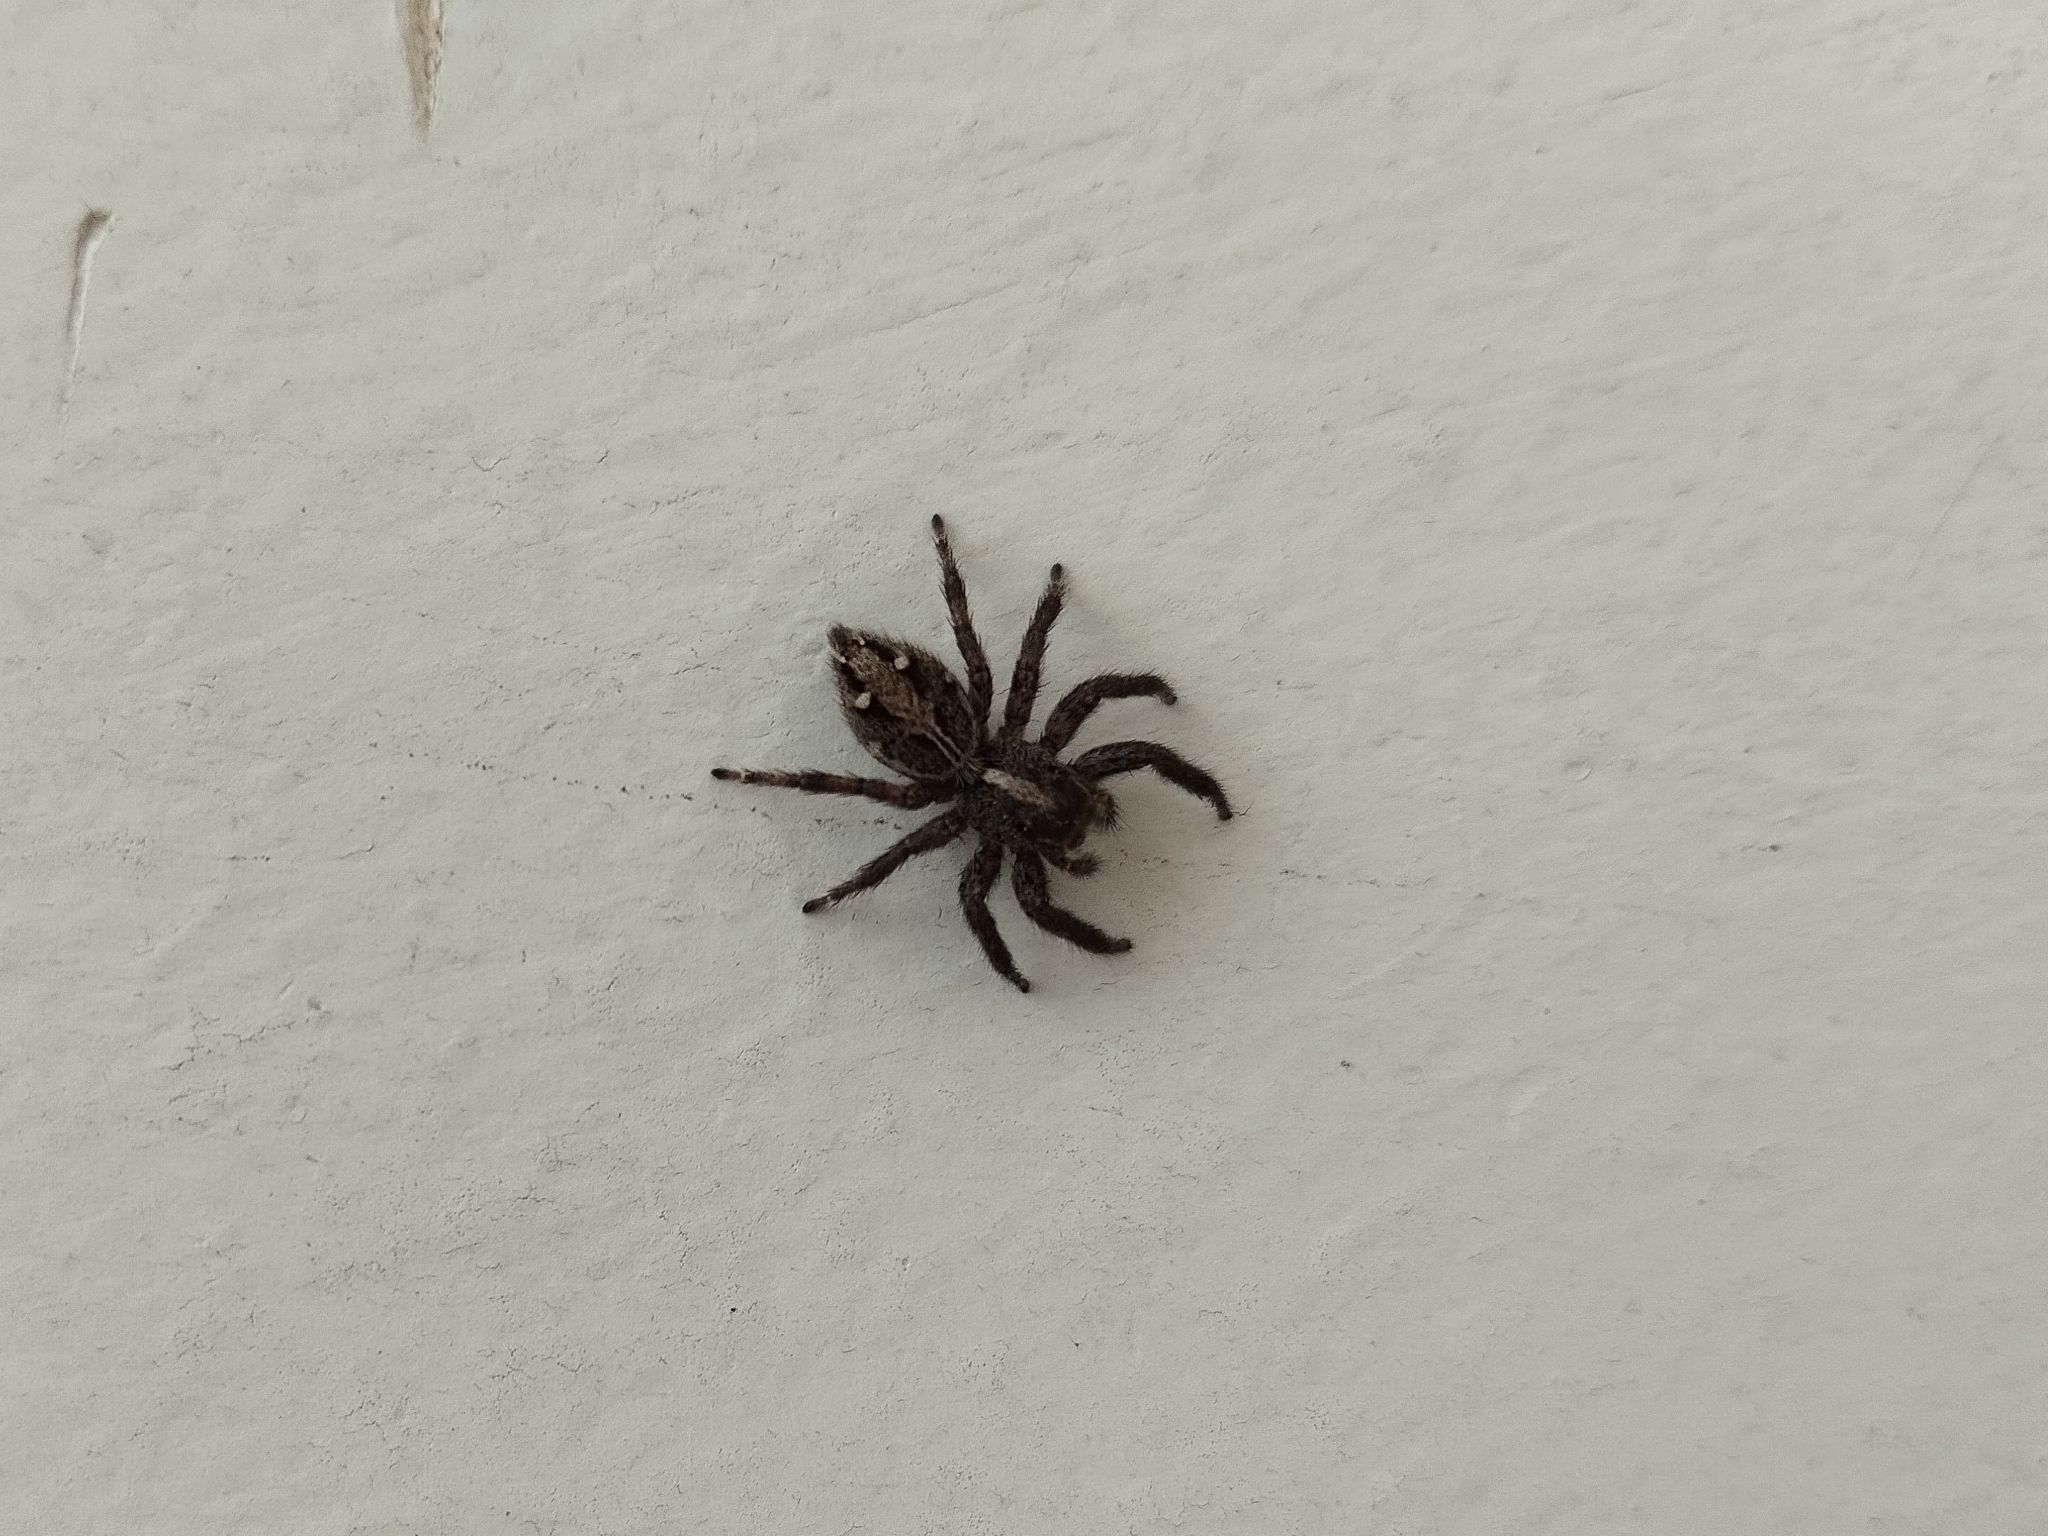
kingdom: Animalia
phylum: Arthropoda
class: Arachnida
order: Araneae
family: Salticidae
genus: Plexippus
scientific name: Plexippus paykulli
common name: Pantropical jumper
